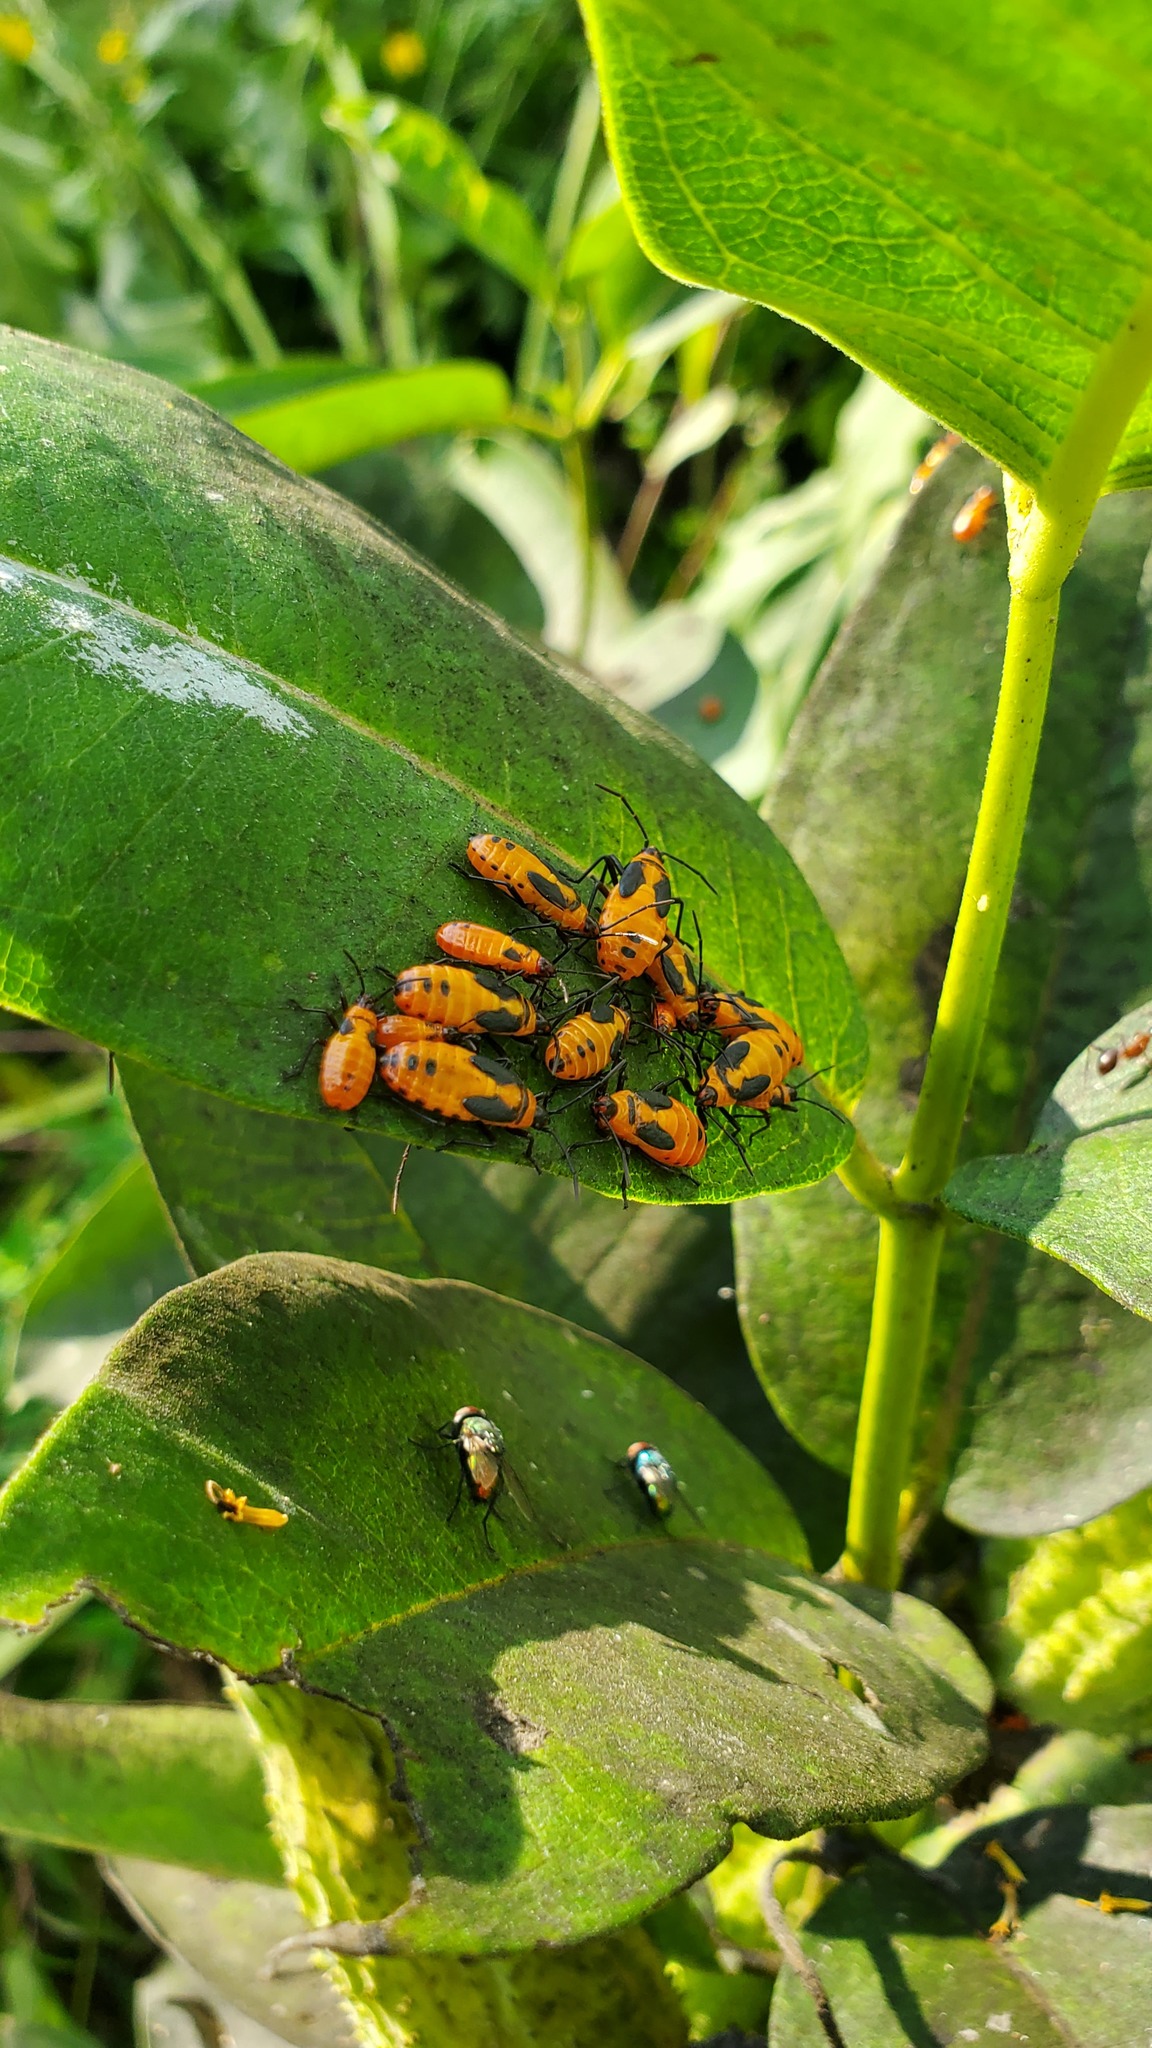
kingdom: Animalia
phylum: Arthropoda
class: Insecta
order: Hemiptera
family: Lygaeidae
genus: Oncopeltus
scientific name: Oncopeltus fasciatus
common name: Large milkweed bug
